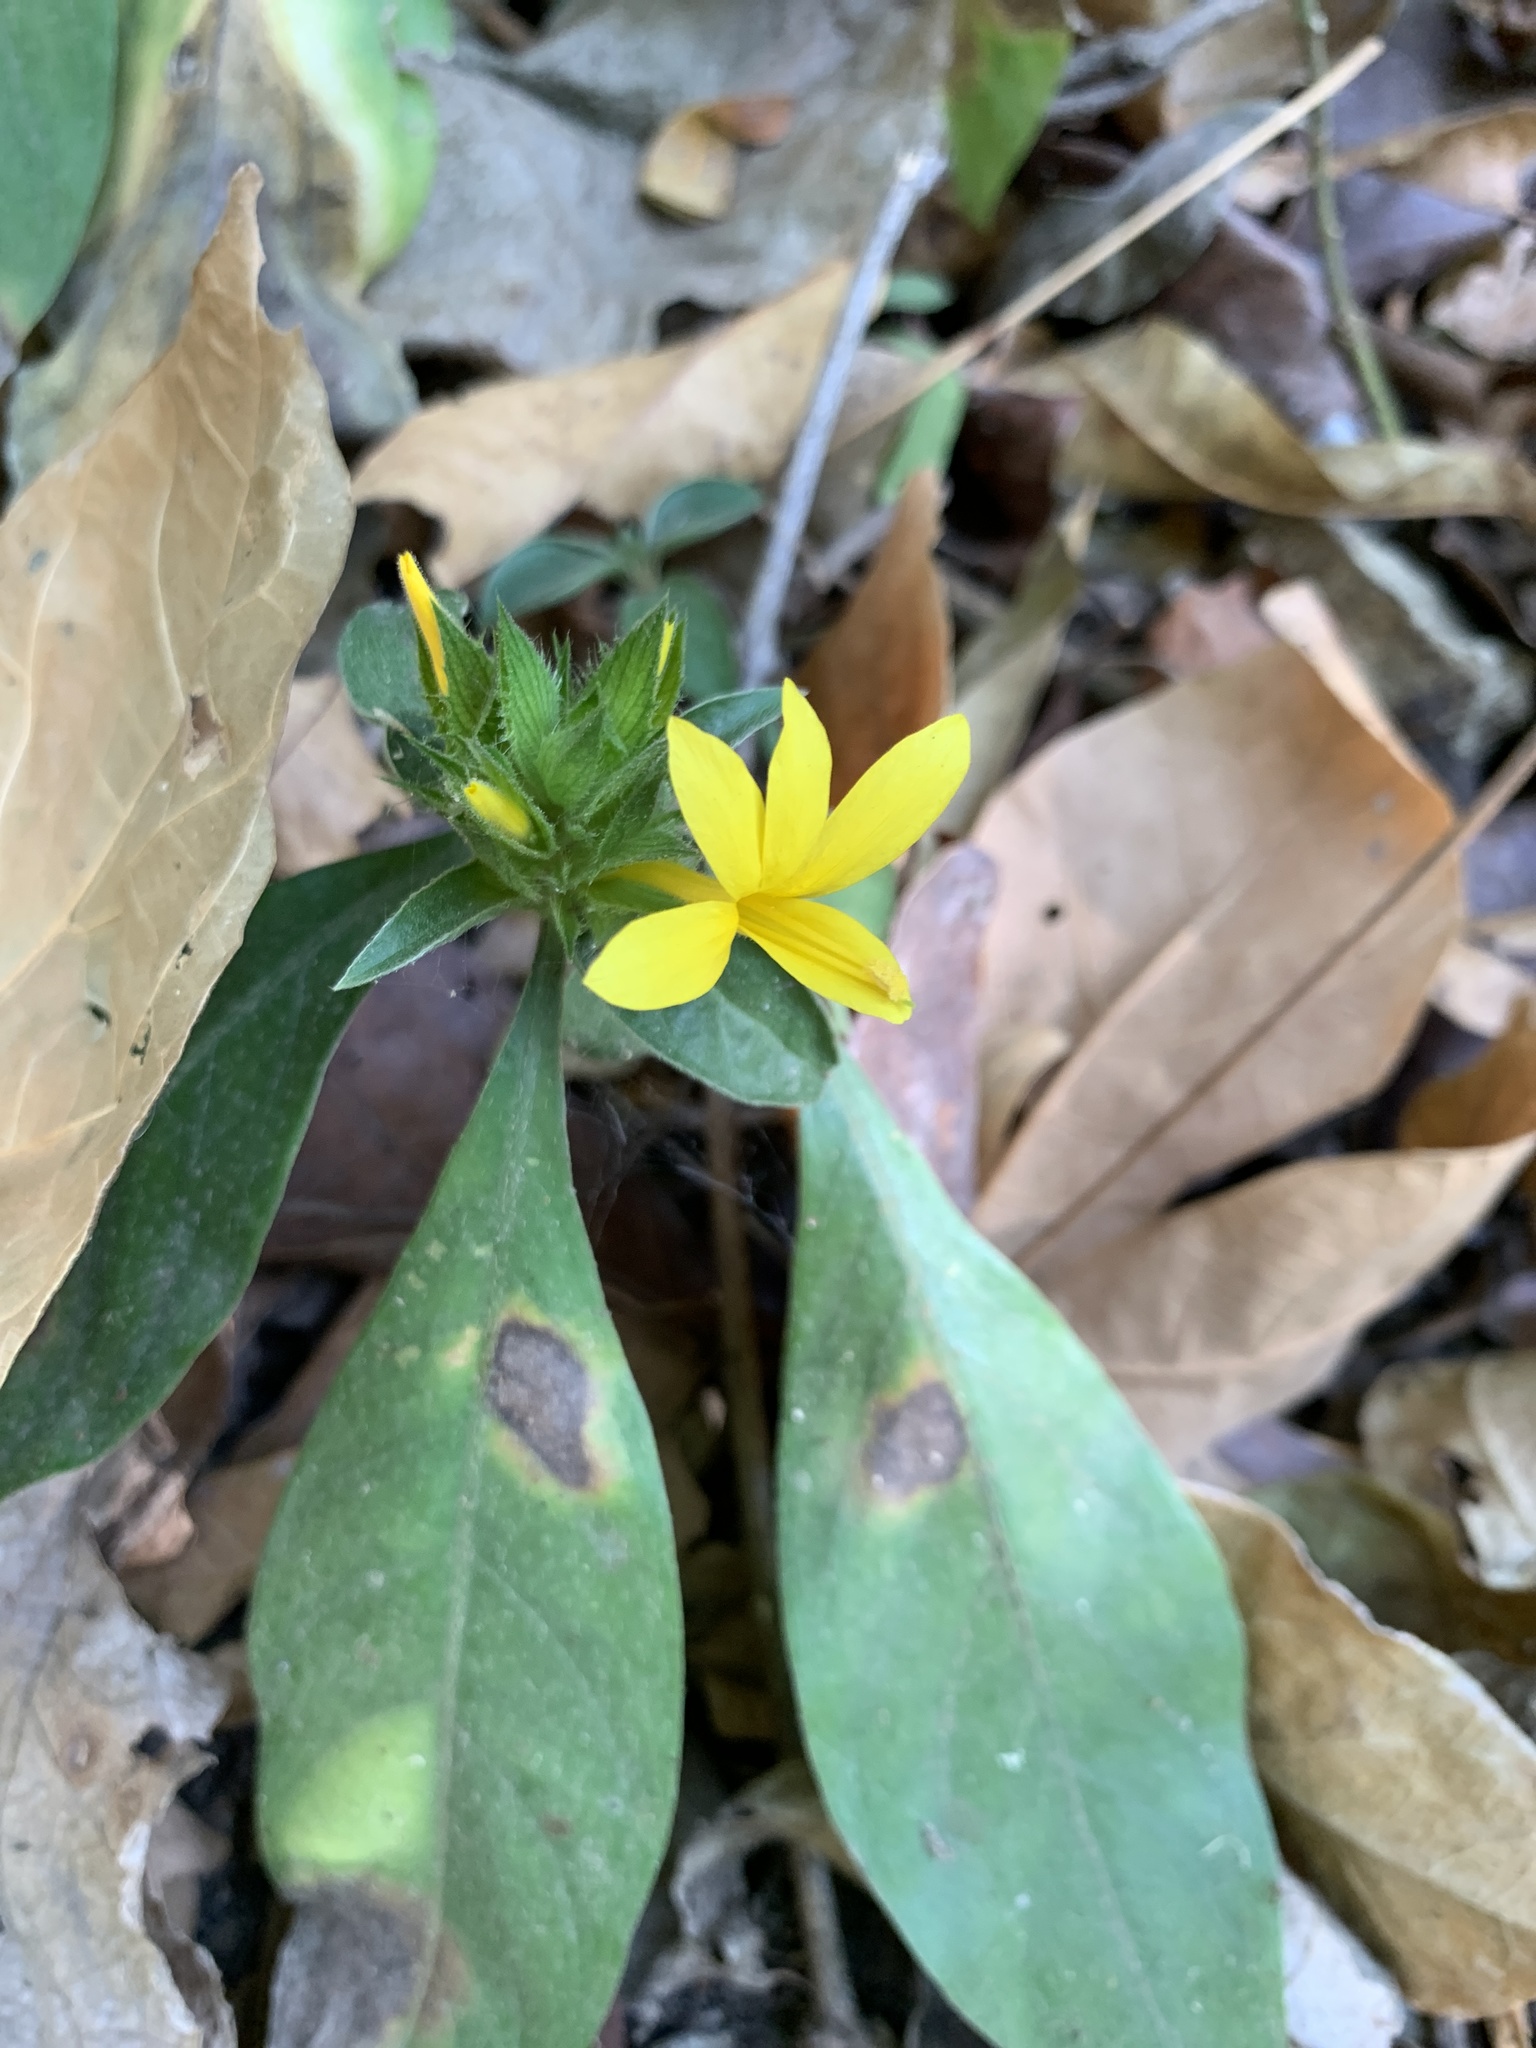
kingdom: Plantae
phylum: Tracheophyta
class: Magnoliopsida
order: Lamiales
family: Acanthaceae
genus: Barleria
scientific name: Barleria oenotheroides
